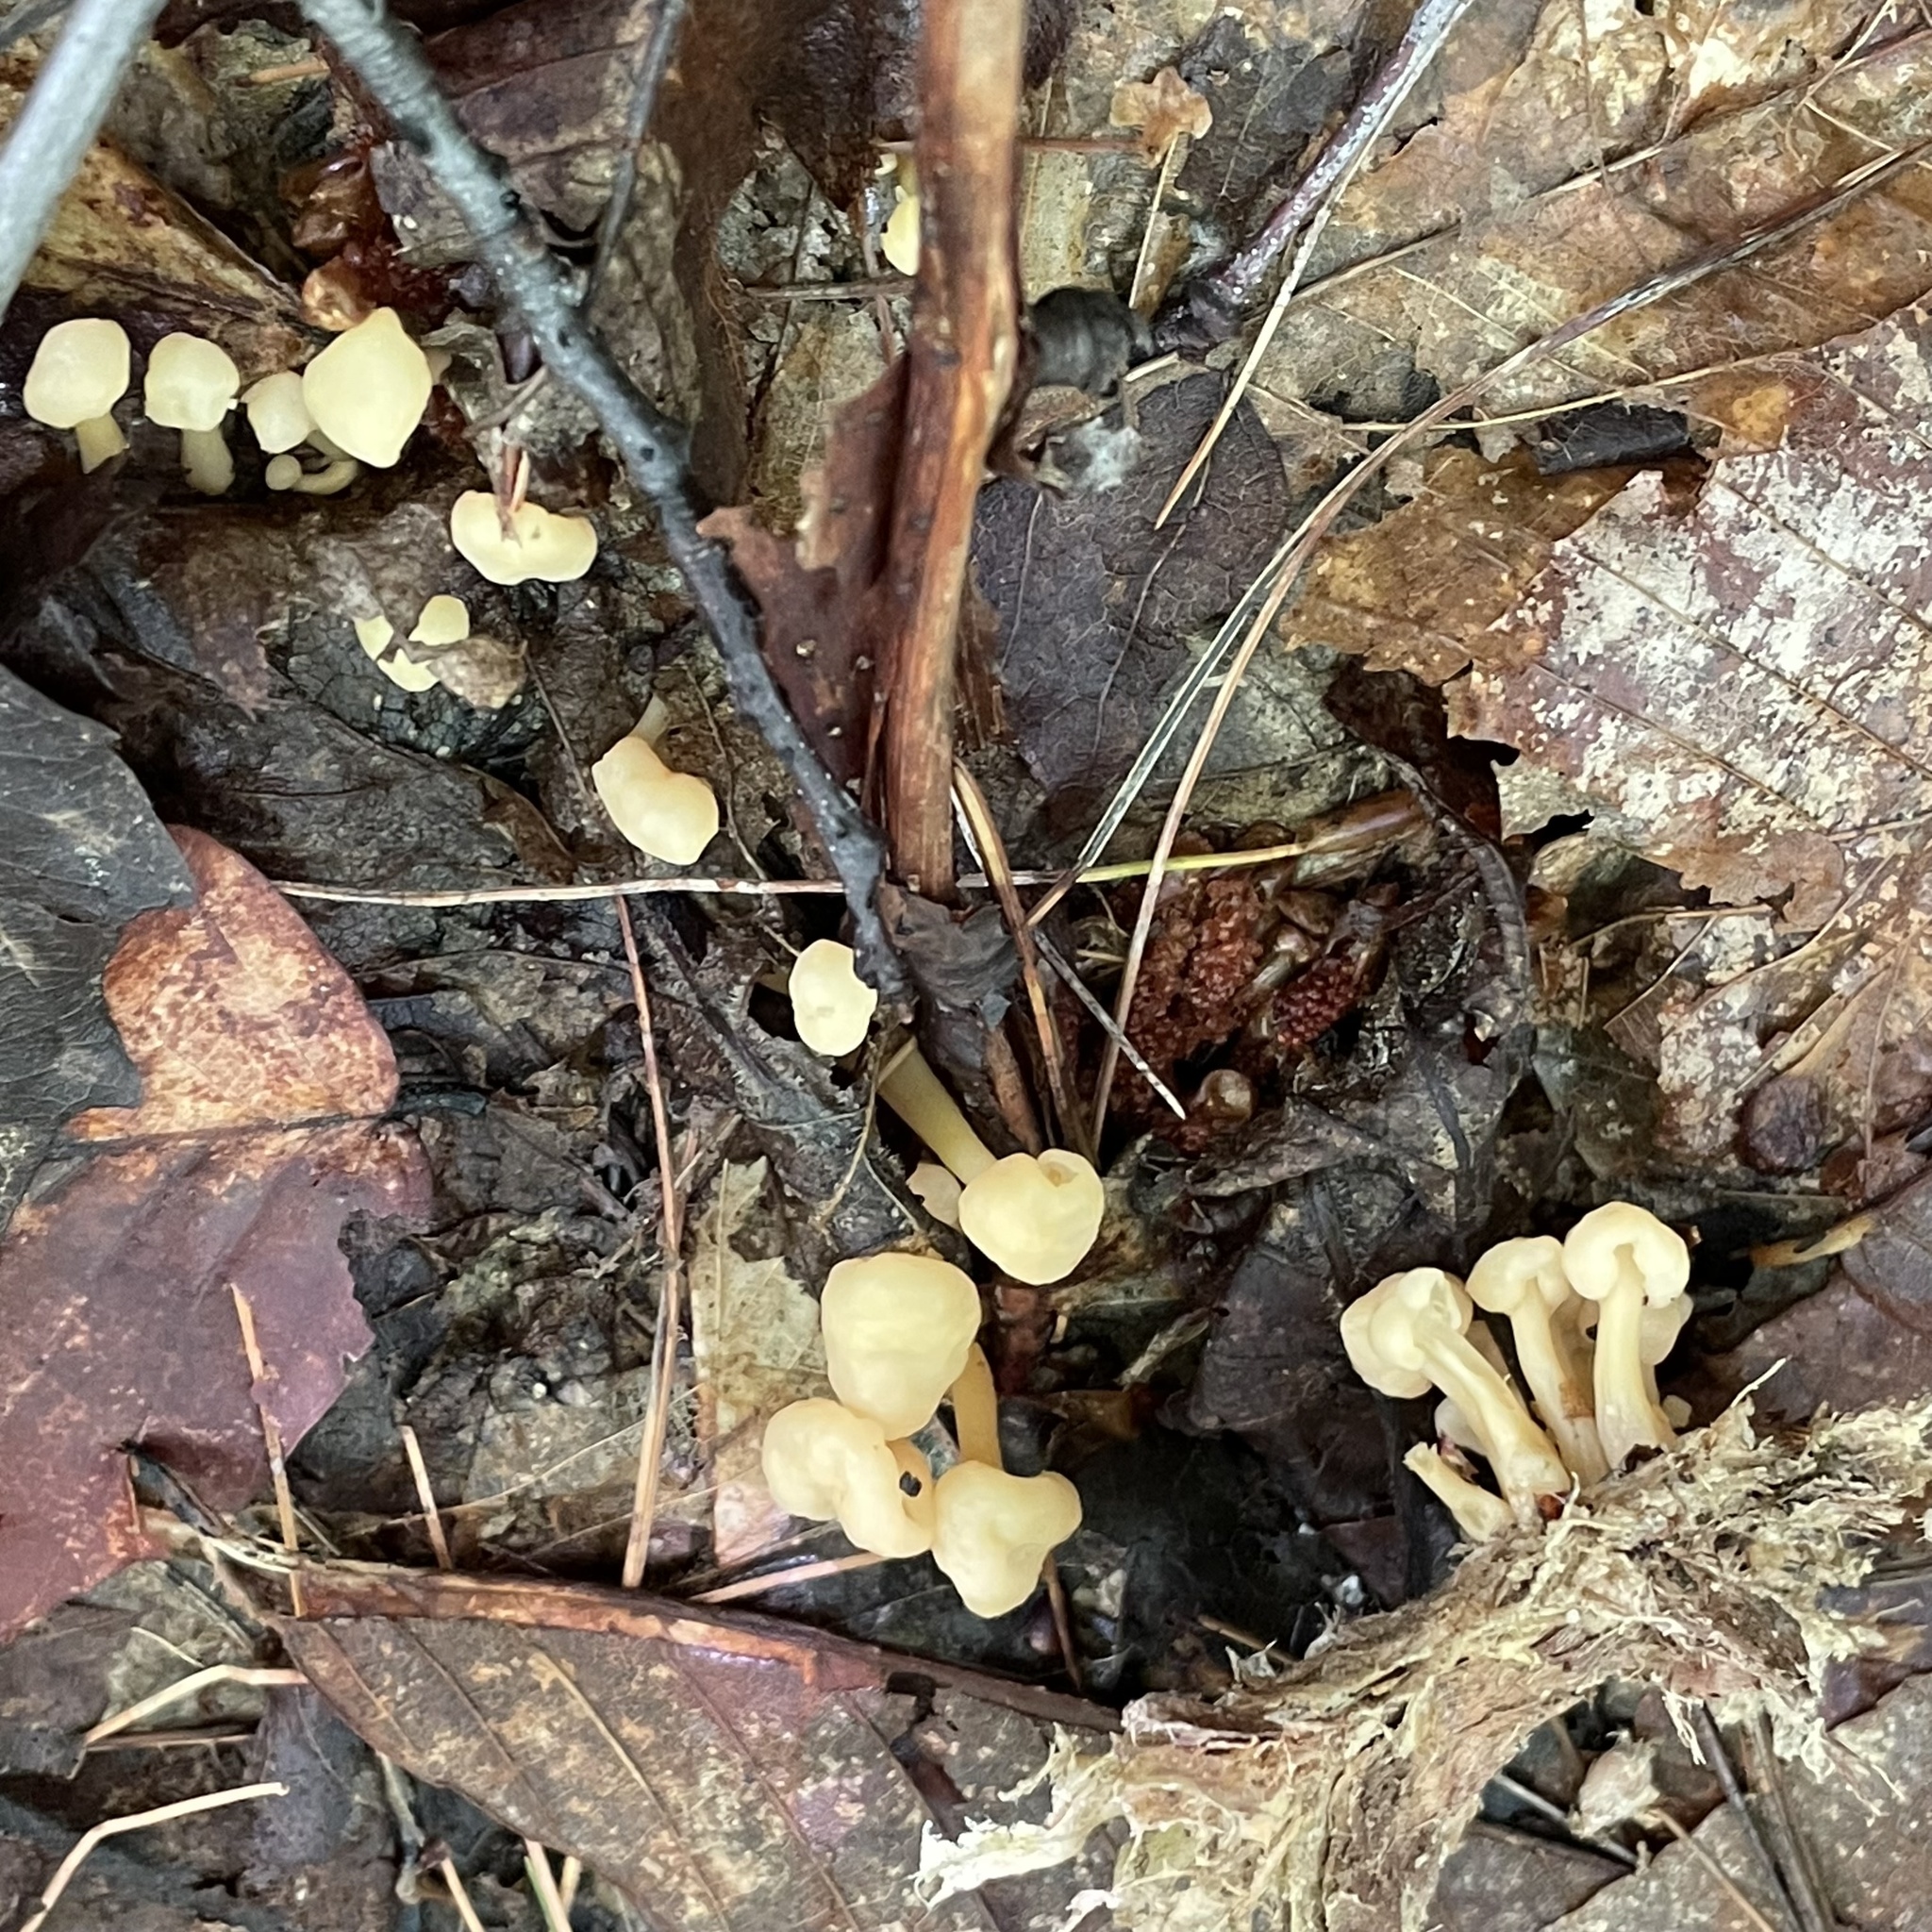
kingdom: Fungi
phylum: Ascomycota
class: Leotiomycetes
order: Rhytismatales
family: Cudoniaceae
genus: Cudonia
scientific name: Cudonia lutea
